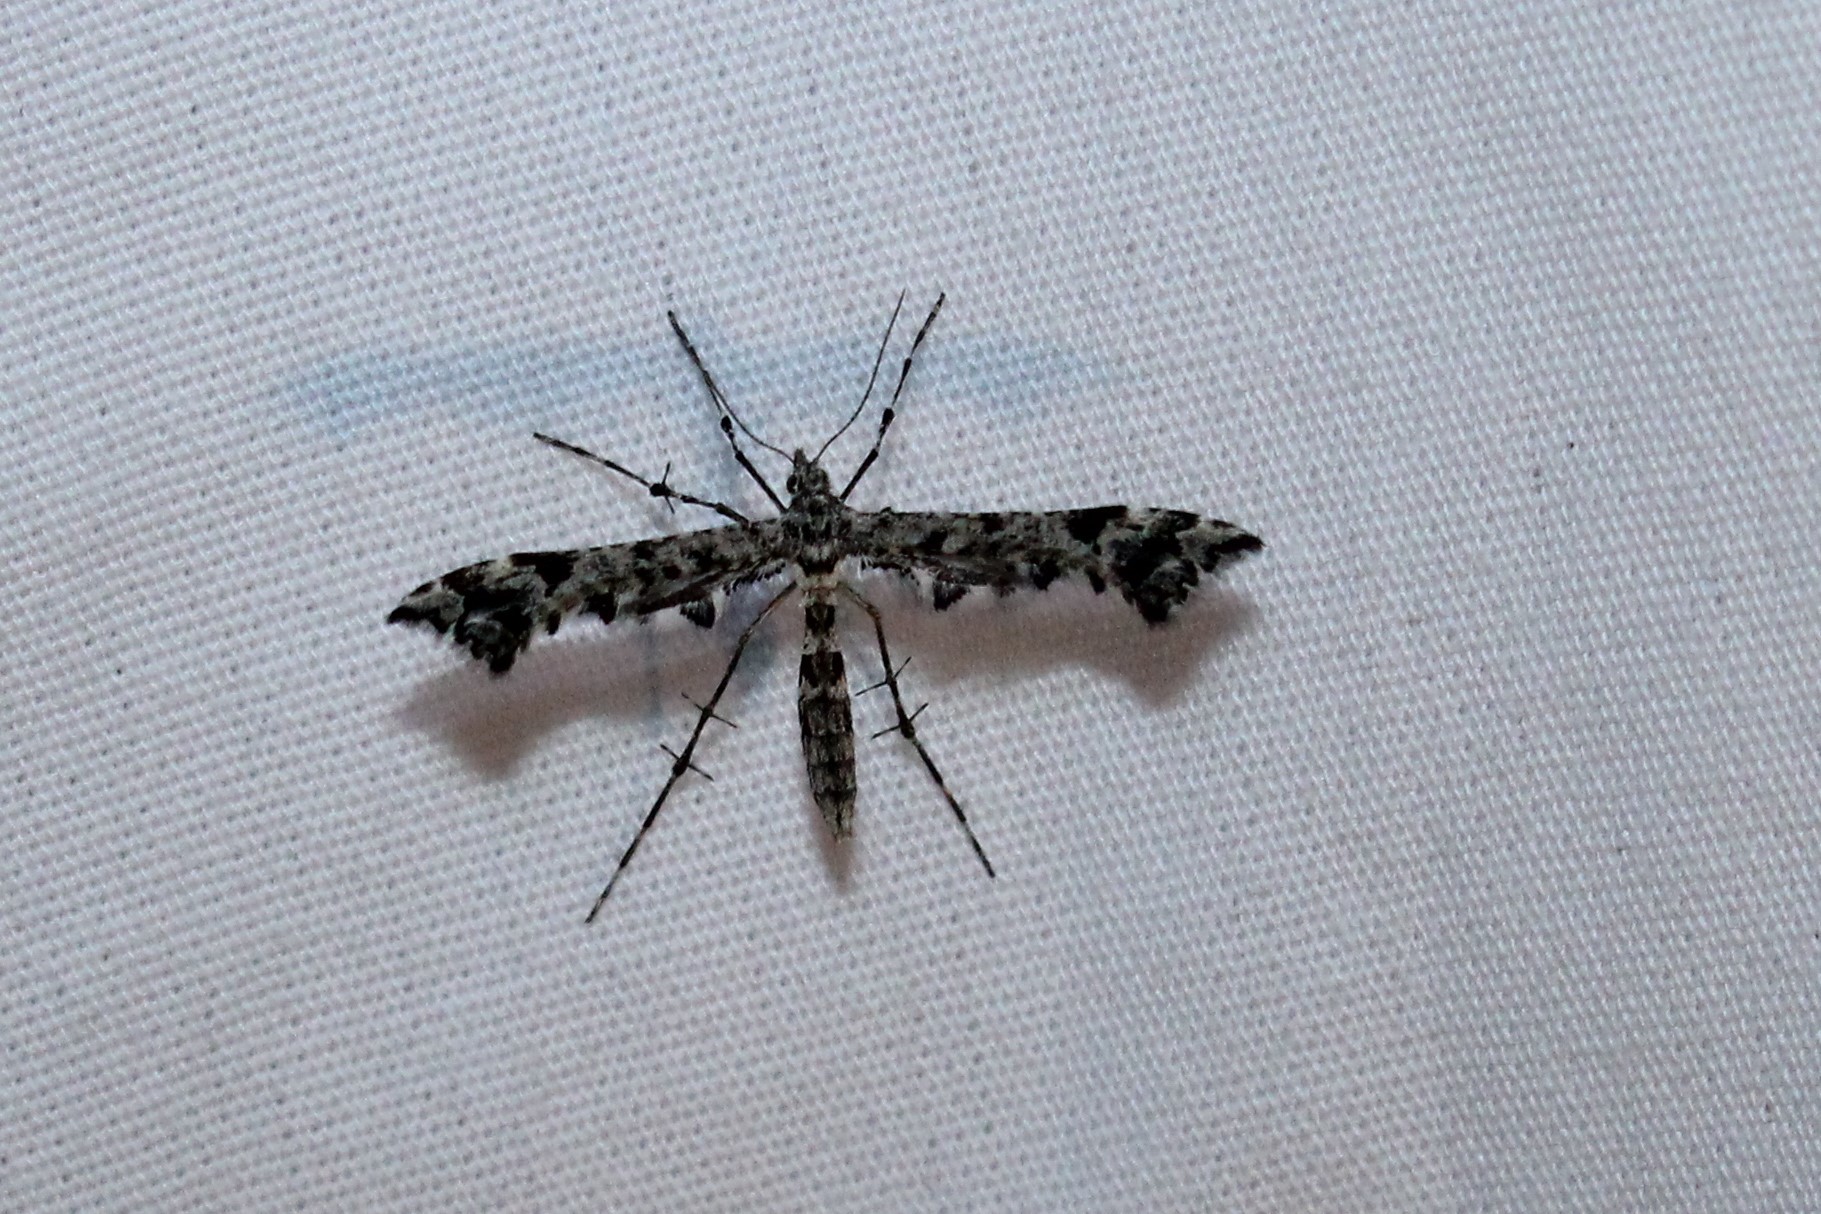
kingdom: Animalia
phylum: Arthropoda
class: Insecta
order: Lepidoptera
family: Pterophoridae
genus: Amblyptilia
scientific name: Amblyptilia pica
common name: Geranium plume moth
